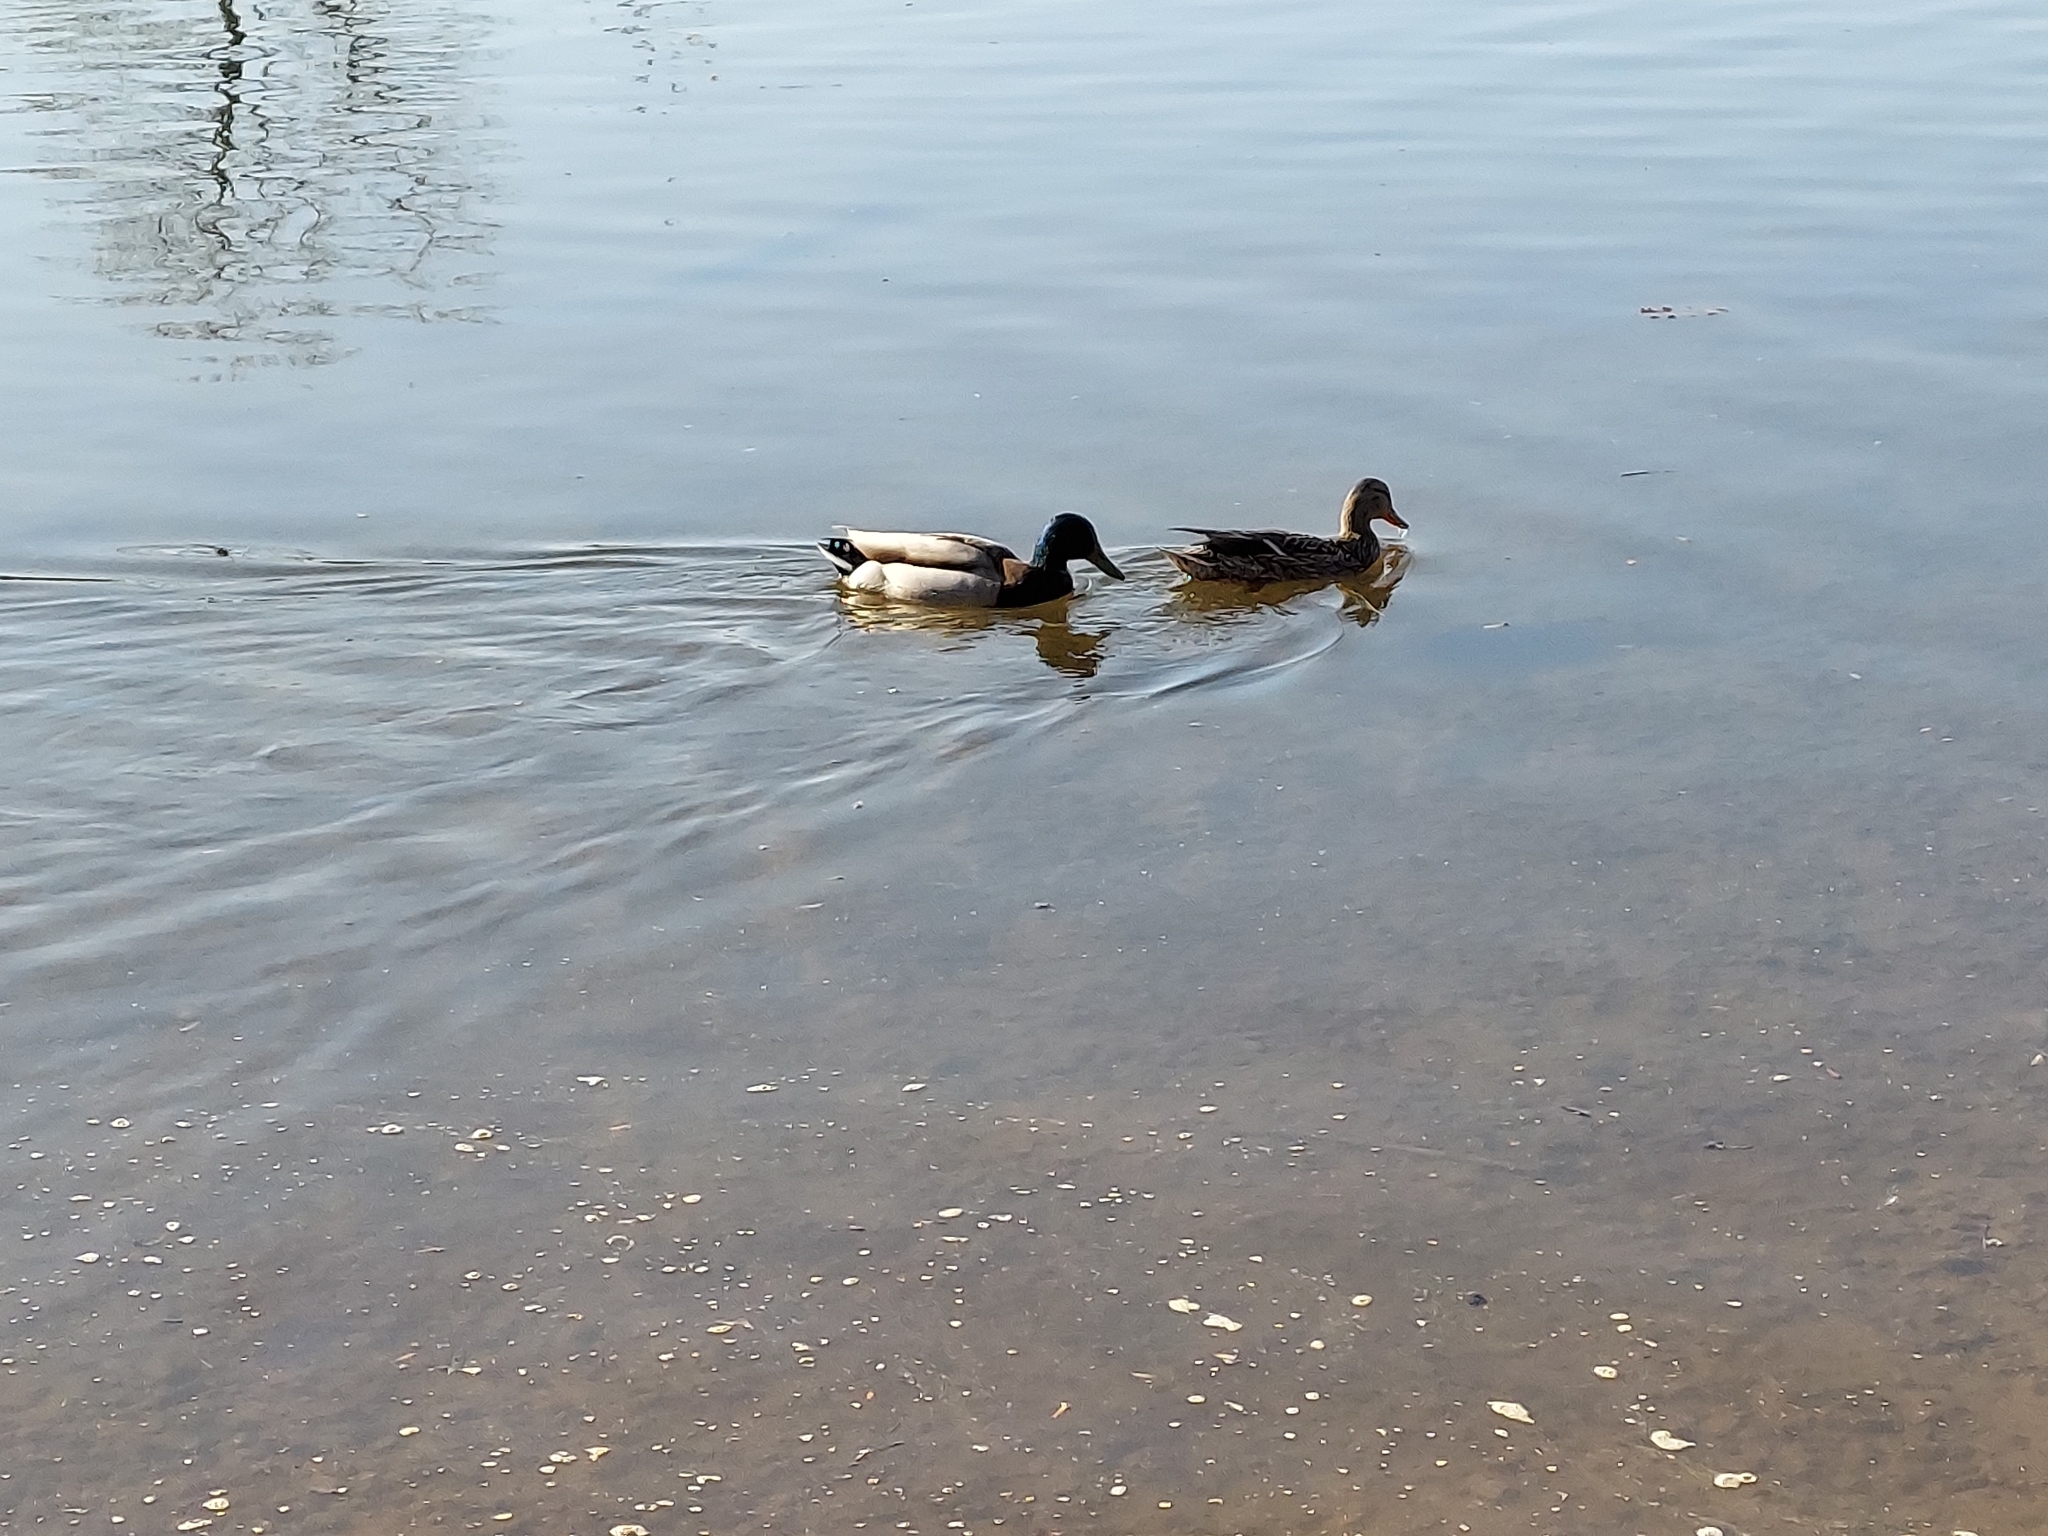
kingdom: Animalia
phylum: Chordata
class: Aves
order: Anseriformes
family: Anatidae
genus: Anas
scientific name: Anas platyrhynchos
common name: Mallard
